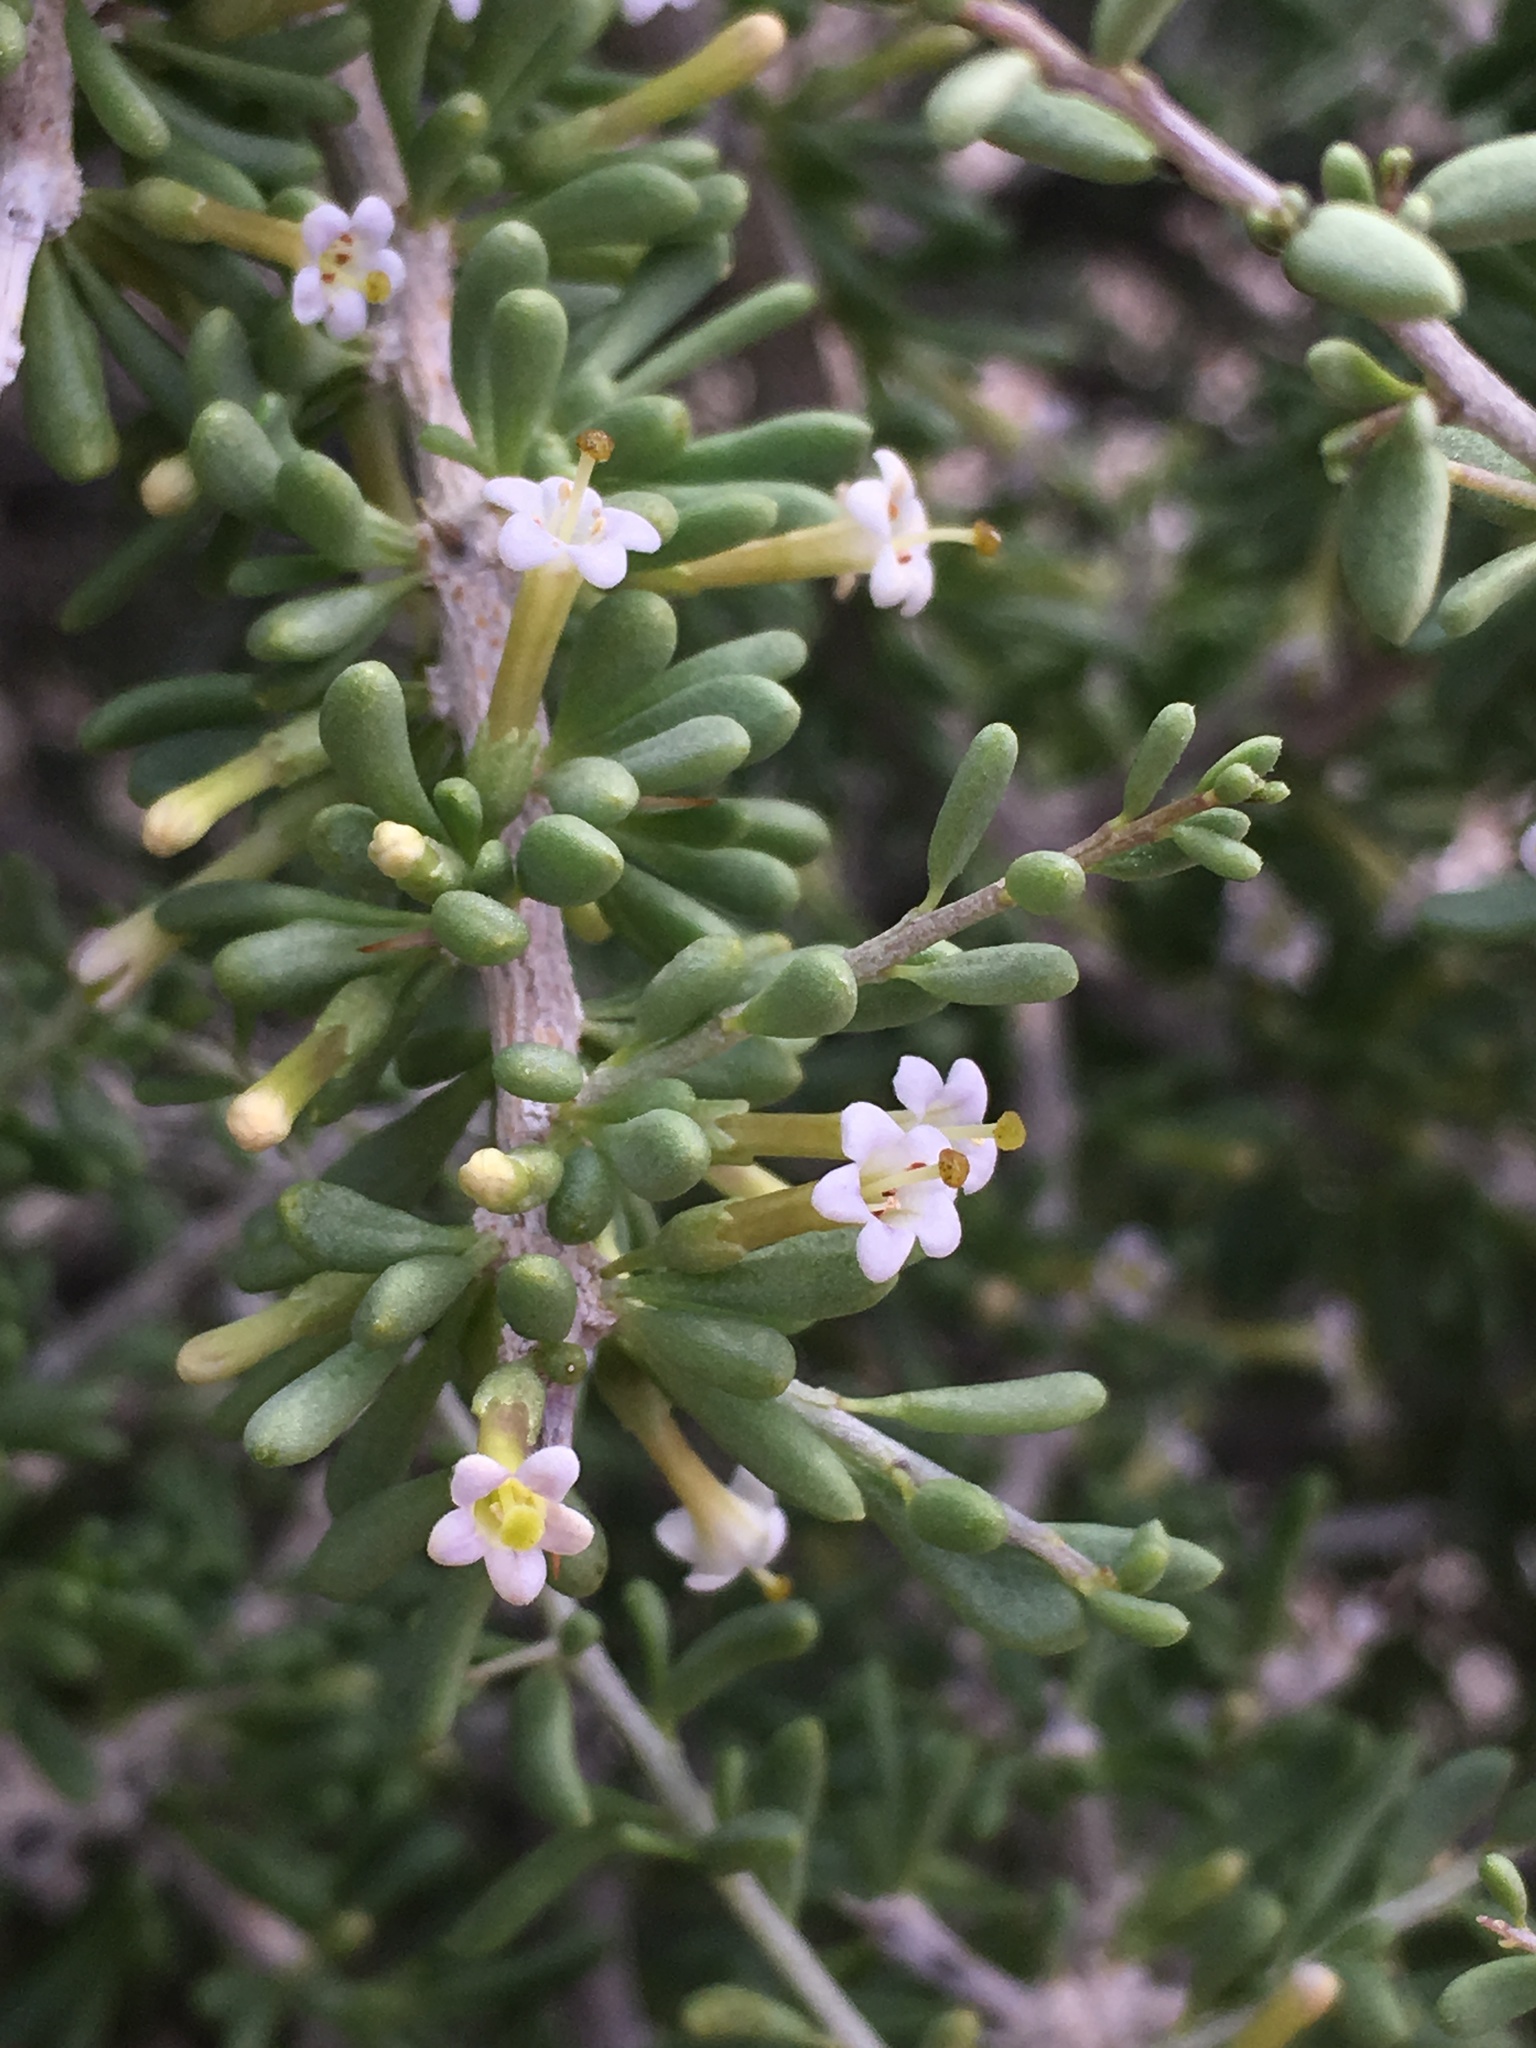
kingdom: Plantae
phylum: Tracheophyta
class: Magnoliopsida
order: Solanales
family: Solanaceae
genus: Lycium
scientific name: Lycium andersonii
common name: Water-jacket
